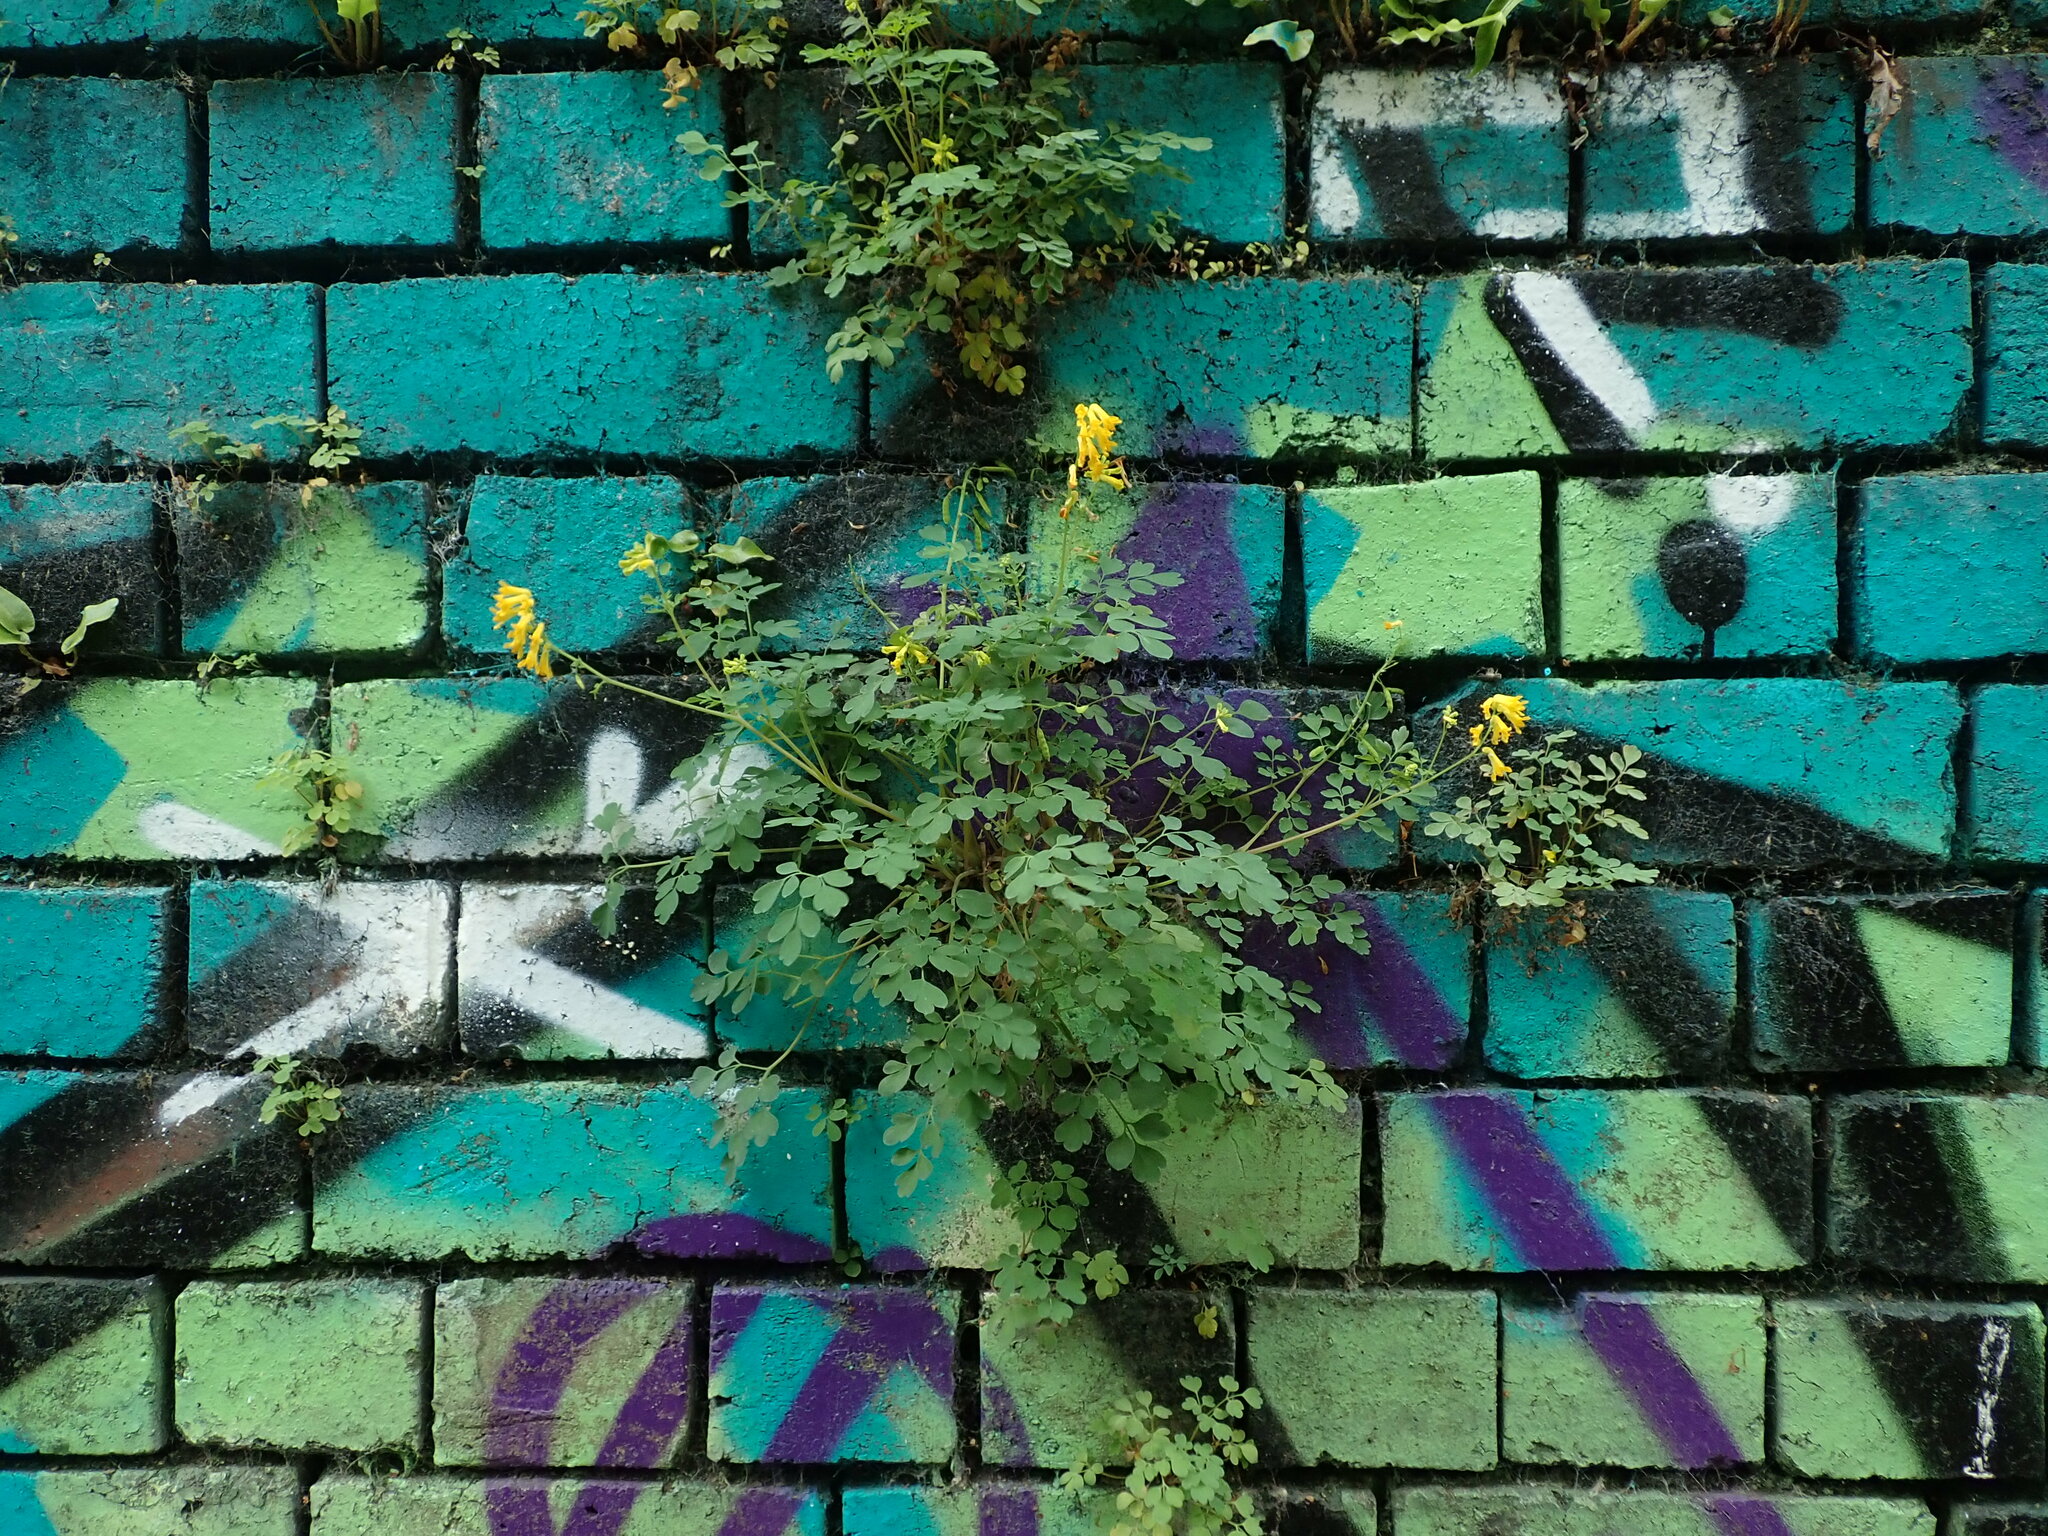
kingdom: Plantae
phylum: Tracheophyta
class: Magnoliopsida
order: Ranunculales
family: Papaveraceae
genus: Pseudofumaria
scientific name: Pseudofumaria lutea
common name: Yellow corydalis
